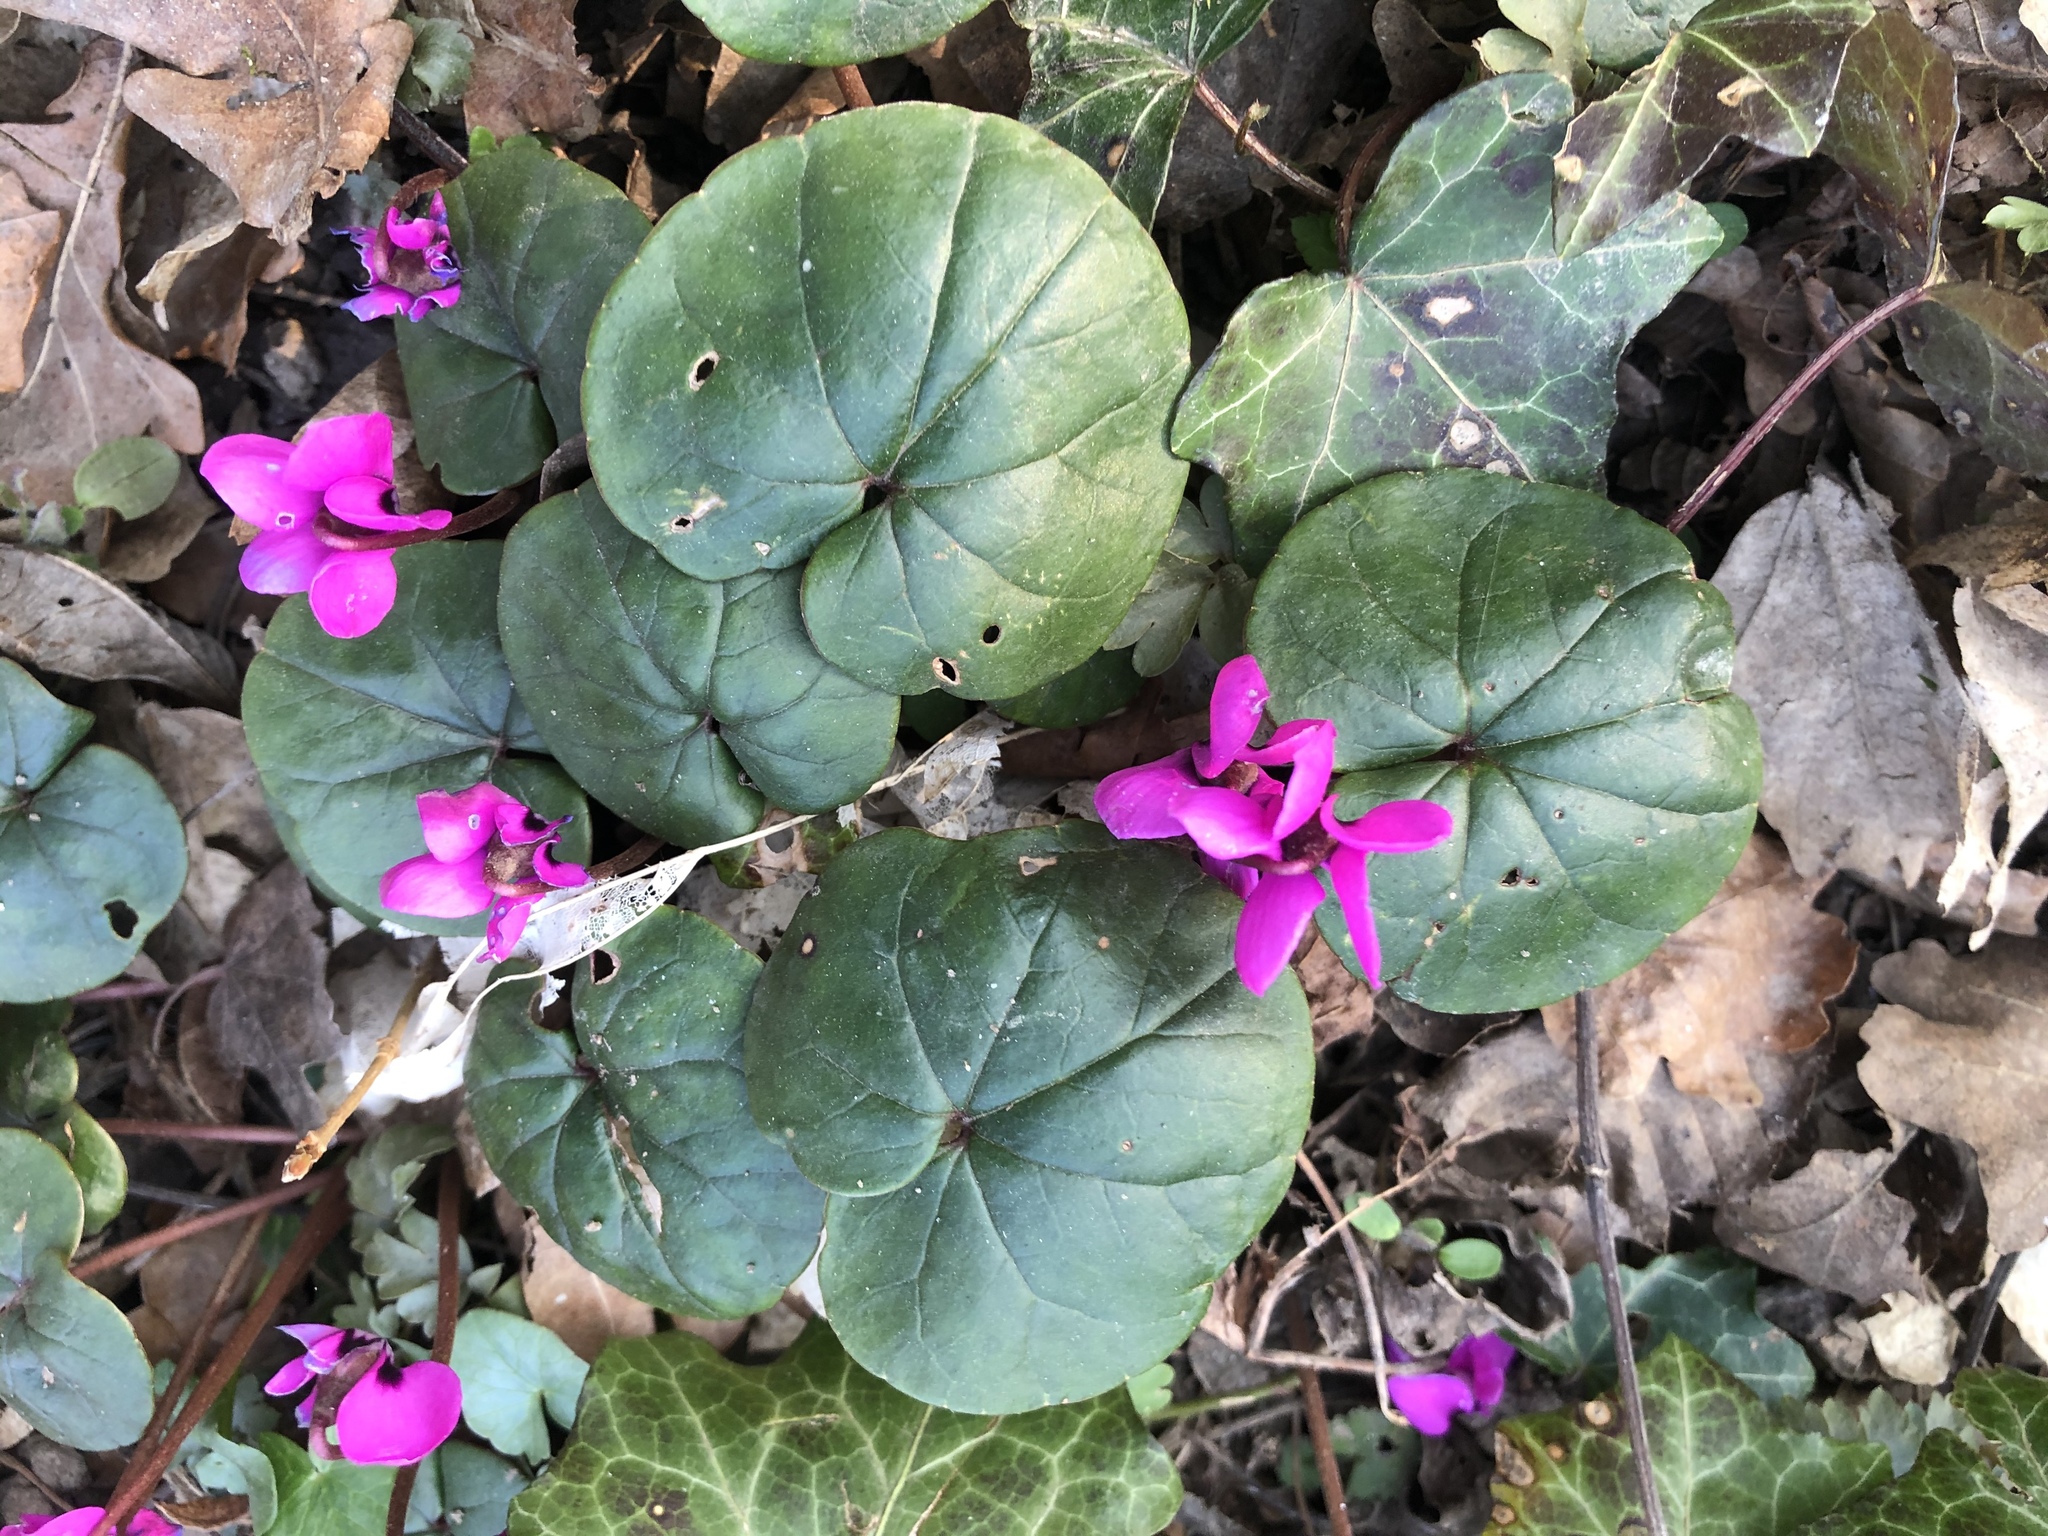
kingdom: Plantae
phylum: Tracheophyta
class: Magnoliopsida
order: Ericales
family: Primulaceae
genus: Cyclamen
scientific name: Cyclamen coum
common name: Eastern sowbread
